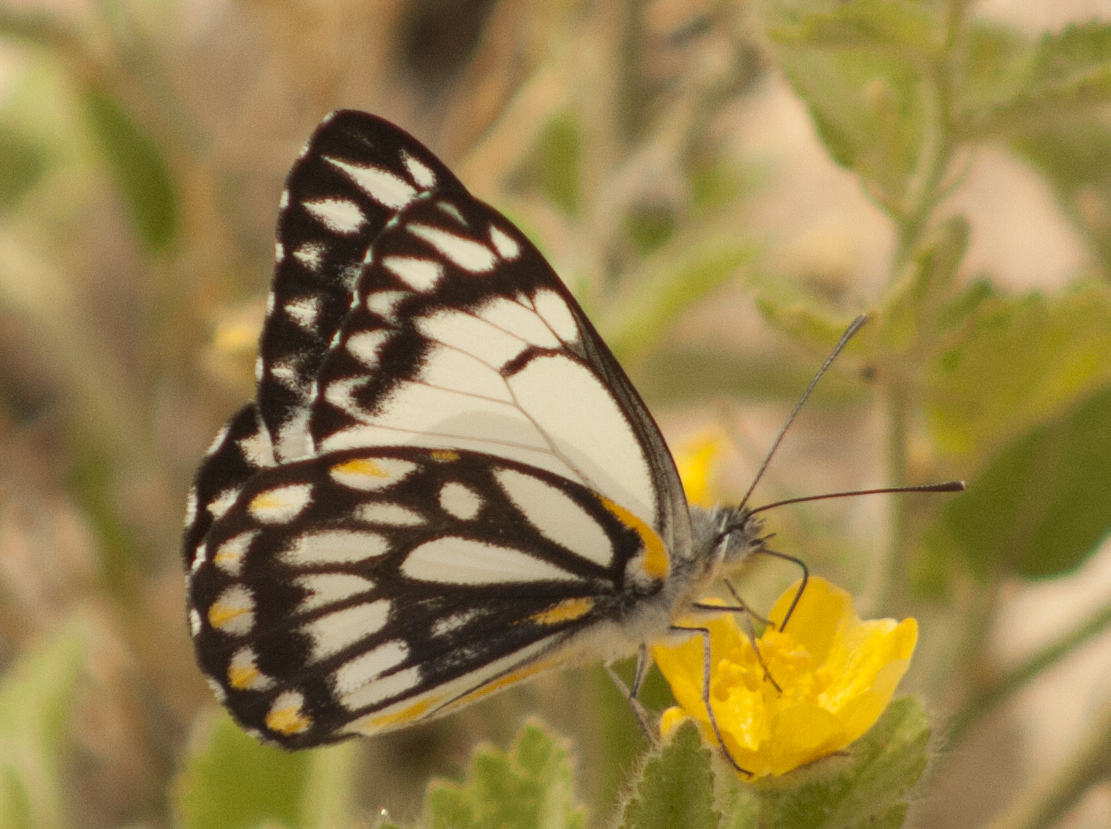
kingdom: Animalia
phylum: Arthropoda
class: Insecta
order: Lepidoptera
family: Pieridae
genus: Belenois
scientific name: Belenois java
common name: Caper white
